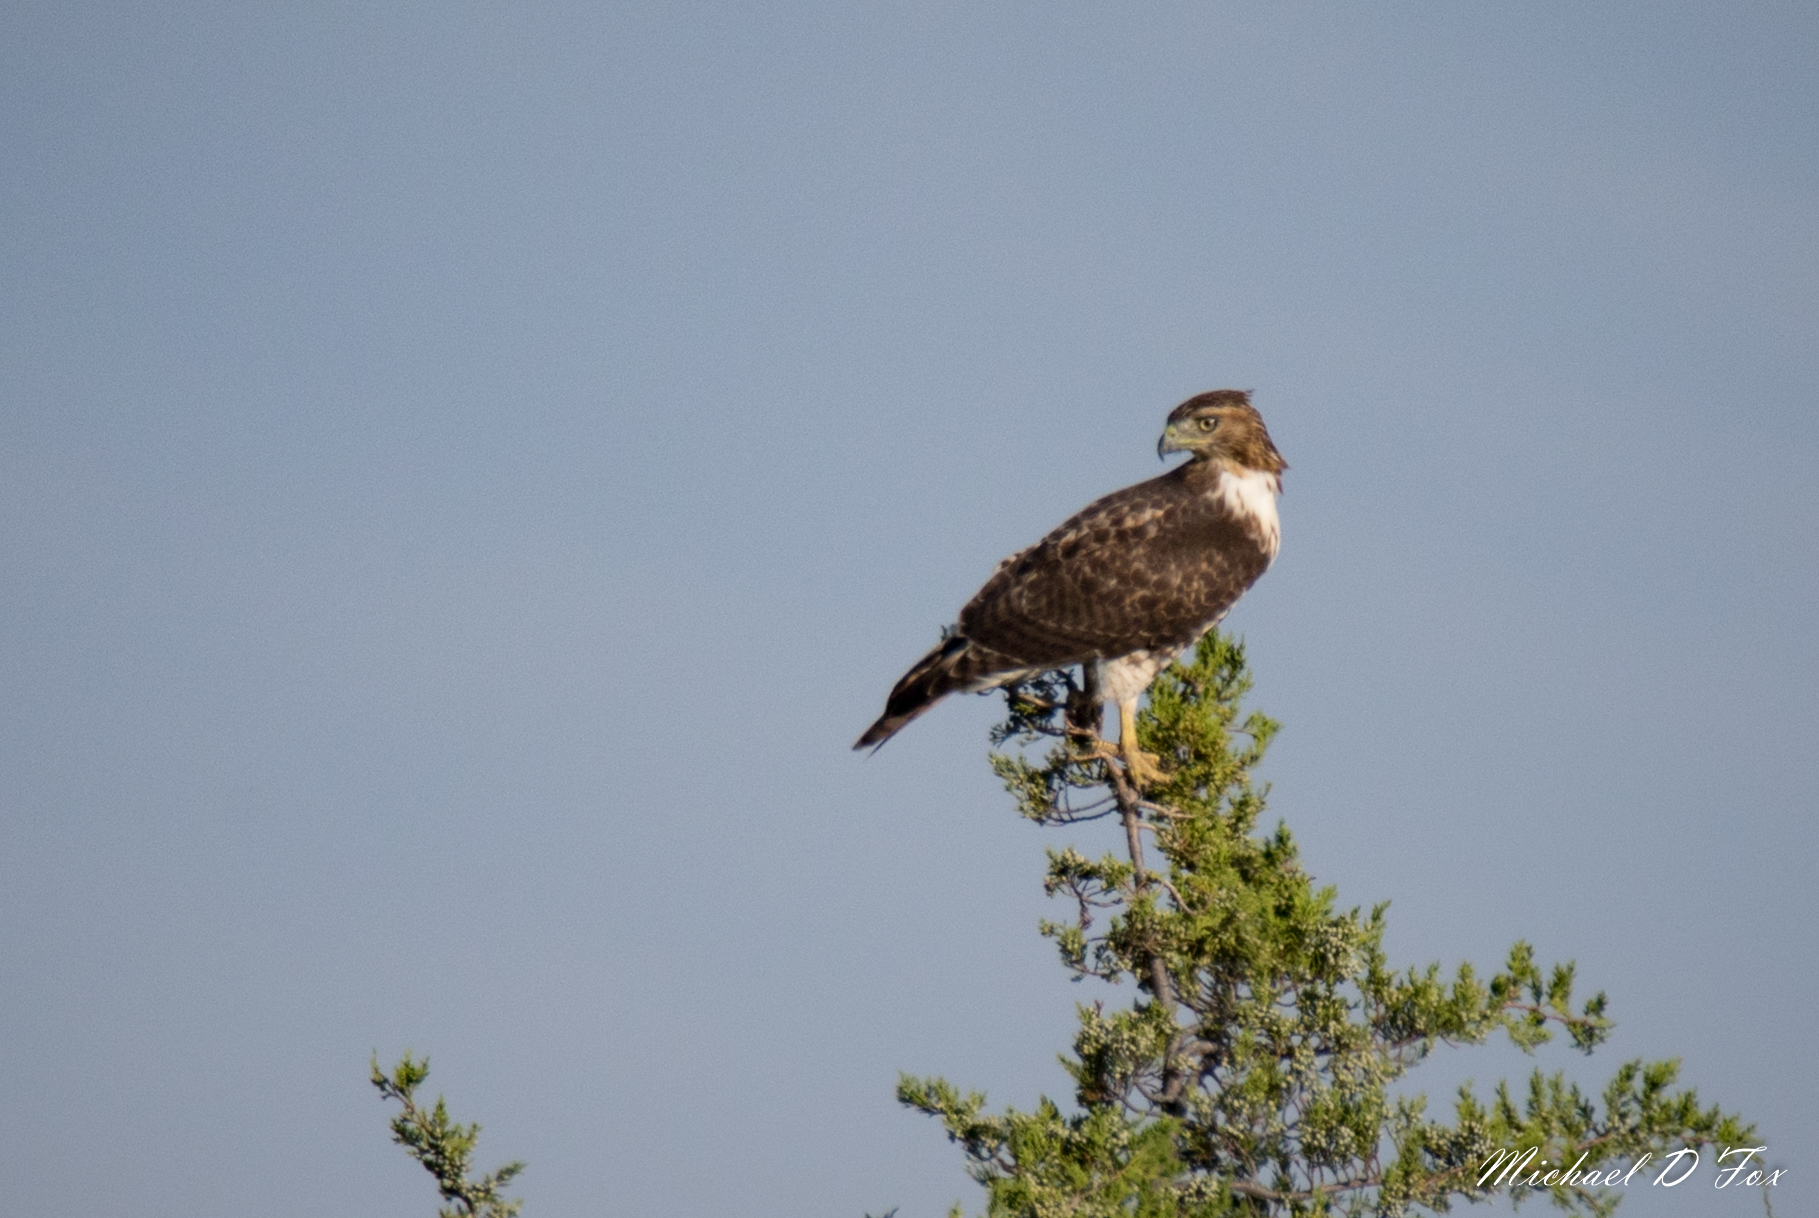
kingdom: Animalia
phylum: Chordata
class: Aves
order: Accipitriformes
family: Accipitridae
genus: Buteo
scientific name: Buteo jamaicensis
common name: Red-tailed hawk
